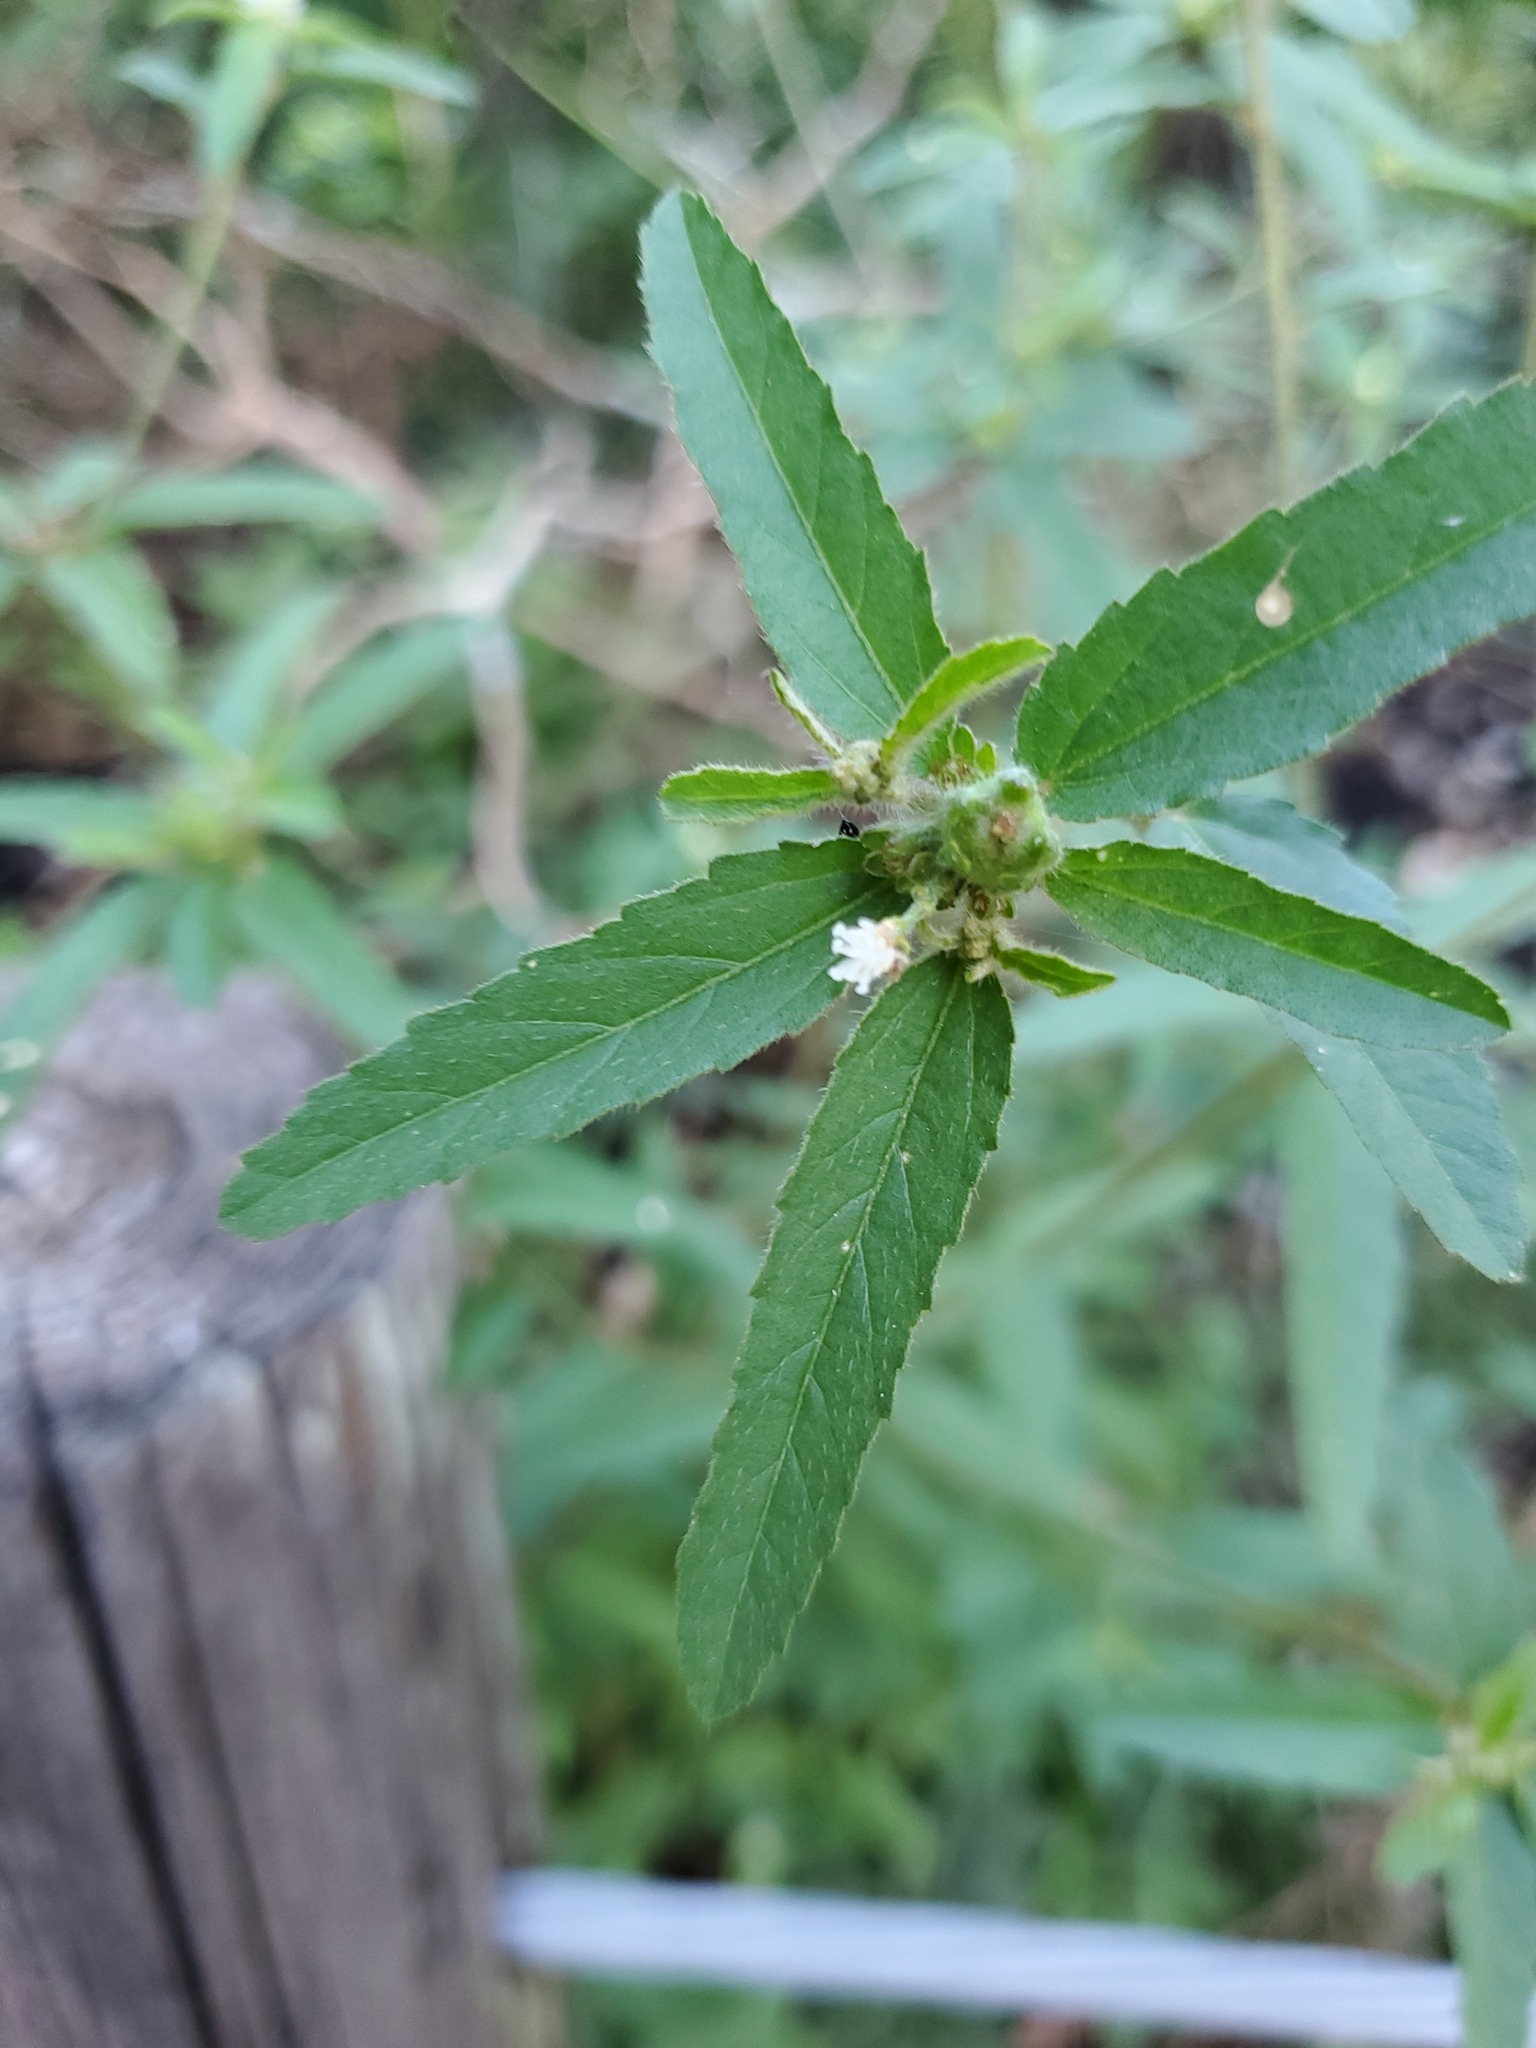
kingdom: Plantae
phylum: Tracheophyta
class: Magnoliopsida
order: Malpighiales
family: Euphorbiaceae
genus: Croton
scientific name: Croton glandulosus
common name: Tropic croton
